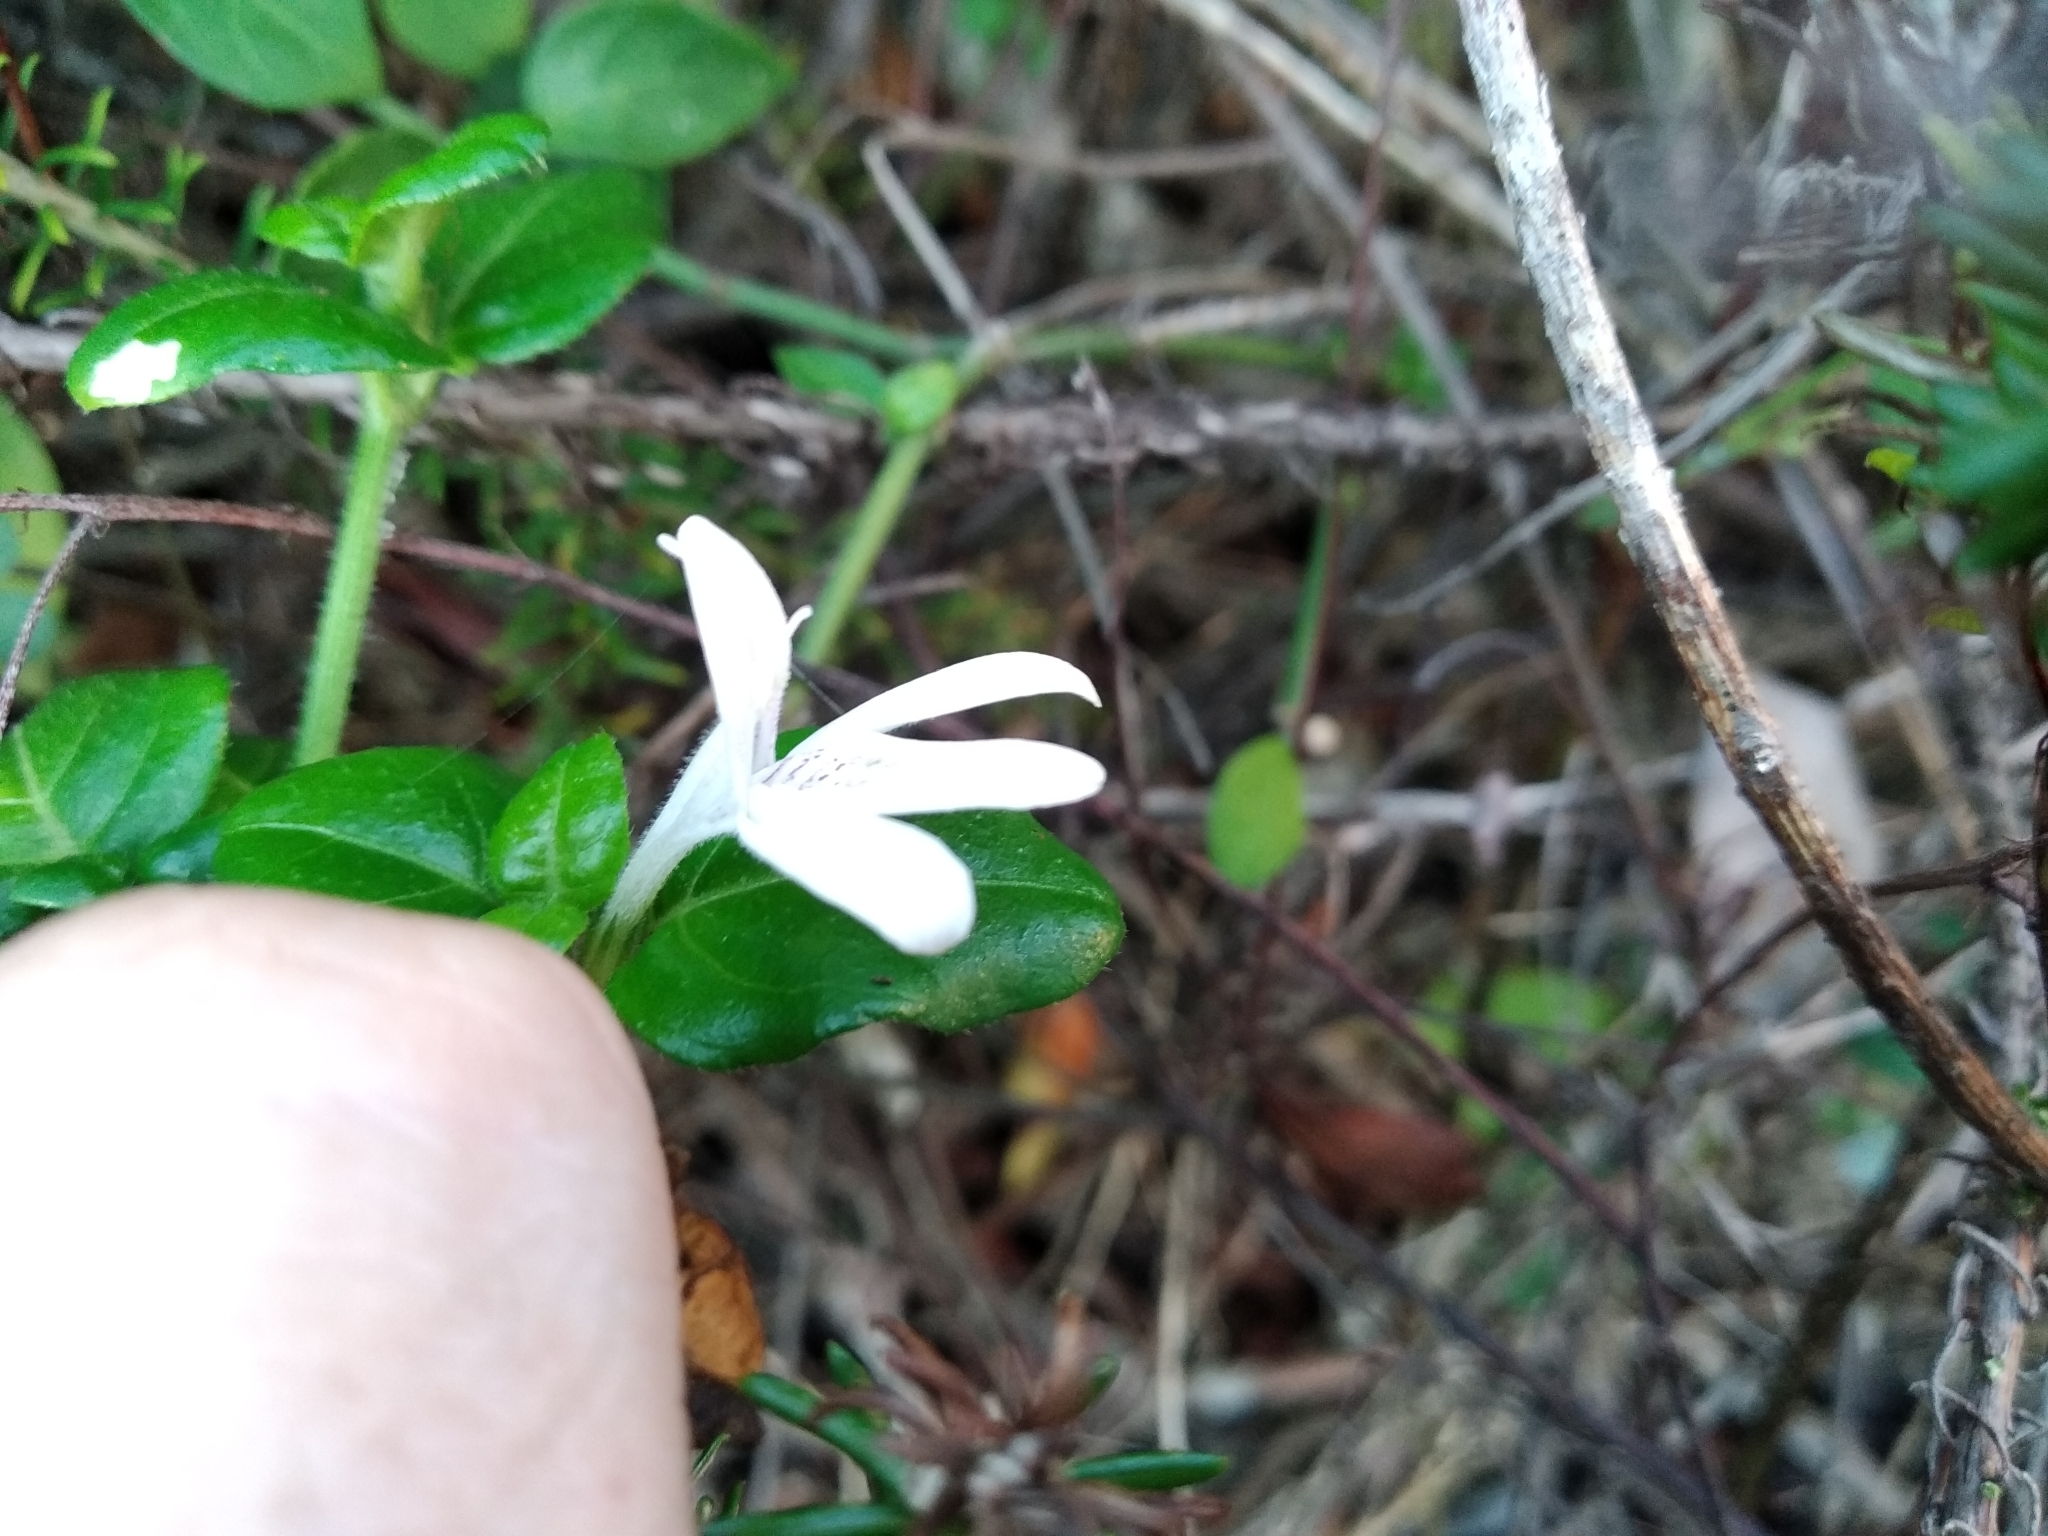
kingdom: Plantae
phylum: Tracheophyta
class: Magnoliopsida
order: Lamiales
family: Acanthaceae
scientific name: Acanthaceae
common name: Acanthaceae
